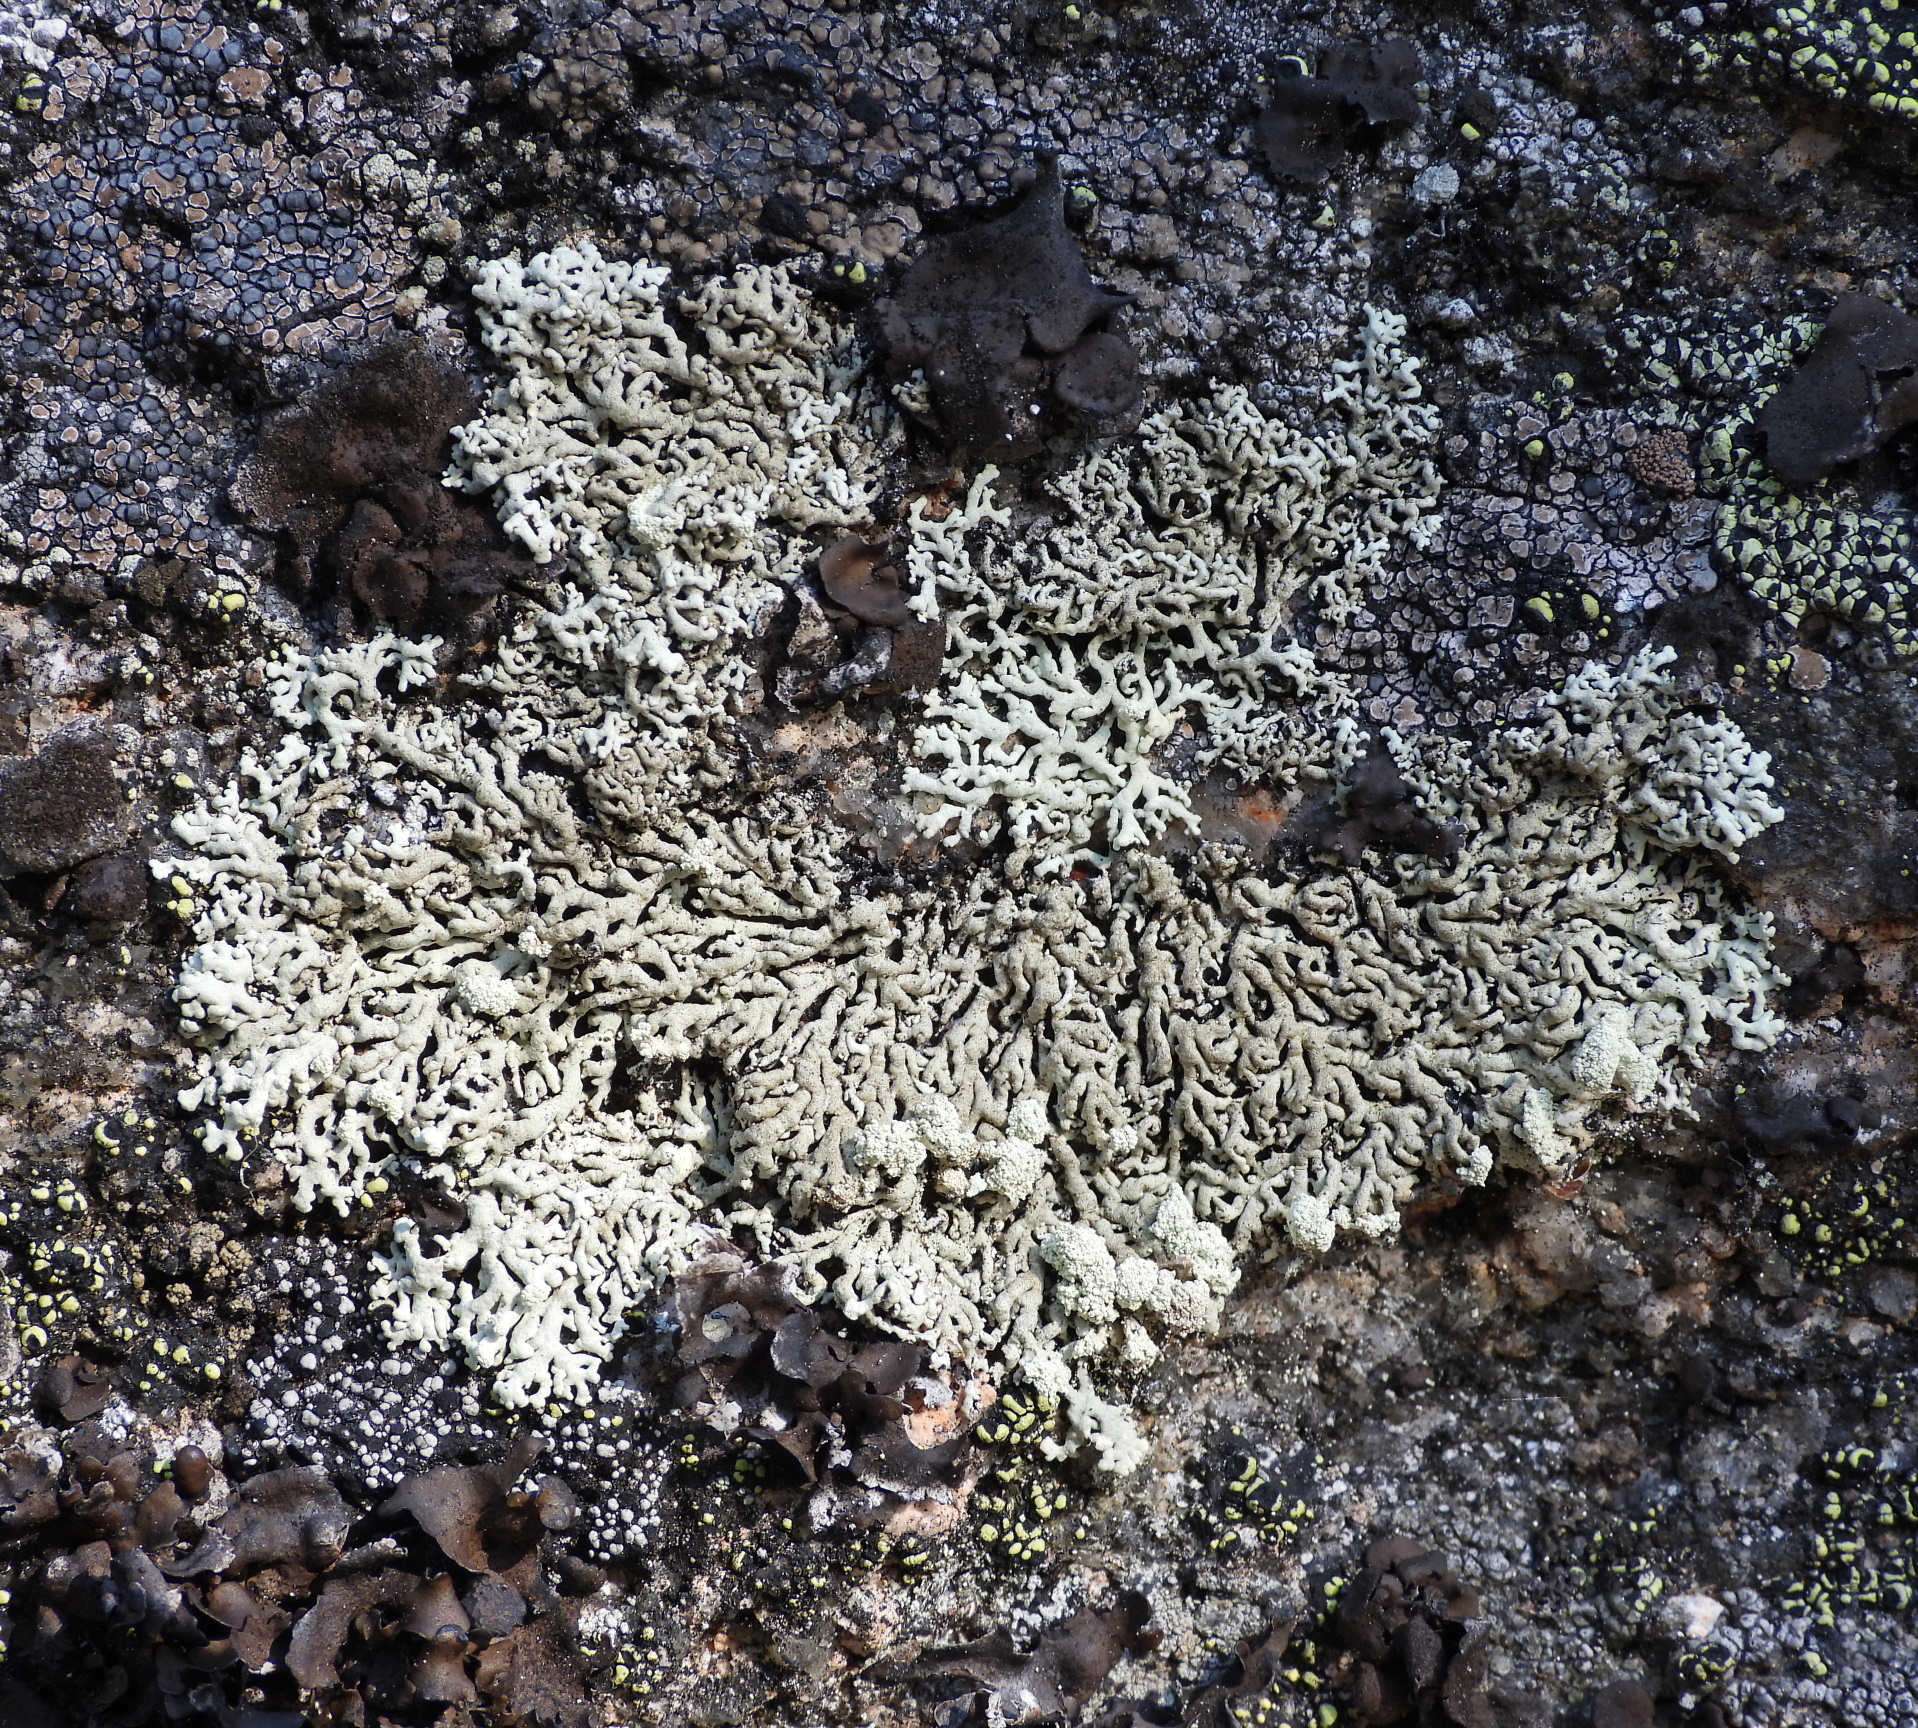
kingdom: Fungi
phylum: Ascomycota
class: Lecanoromycetes
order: Lecanorales
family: Parmeliaceae
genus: Arctoparmelia
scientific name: Arctoparmelia incurva
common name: Bent ring lichen
